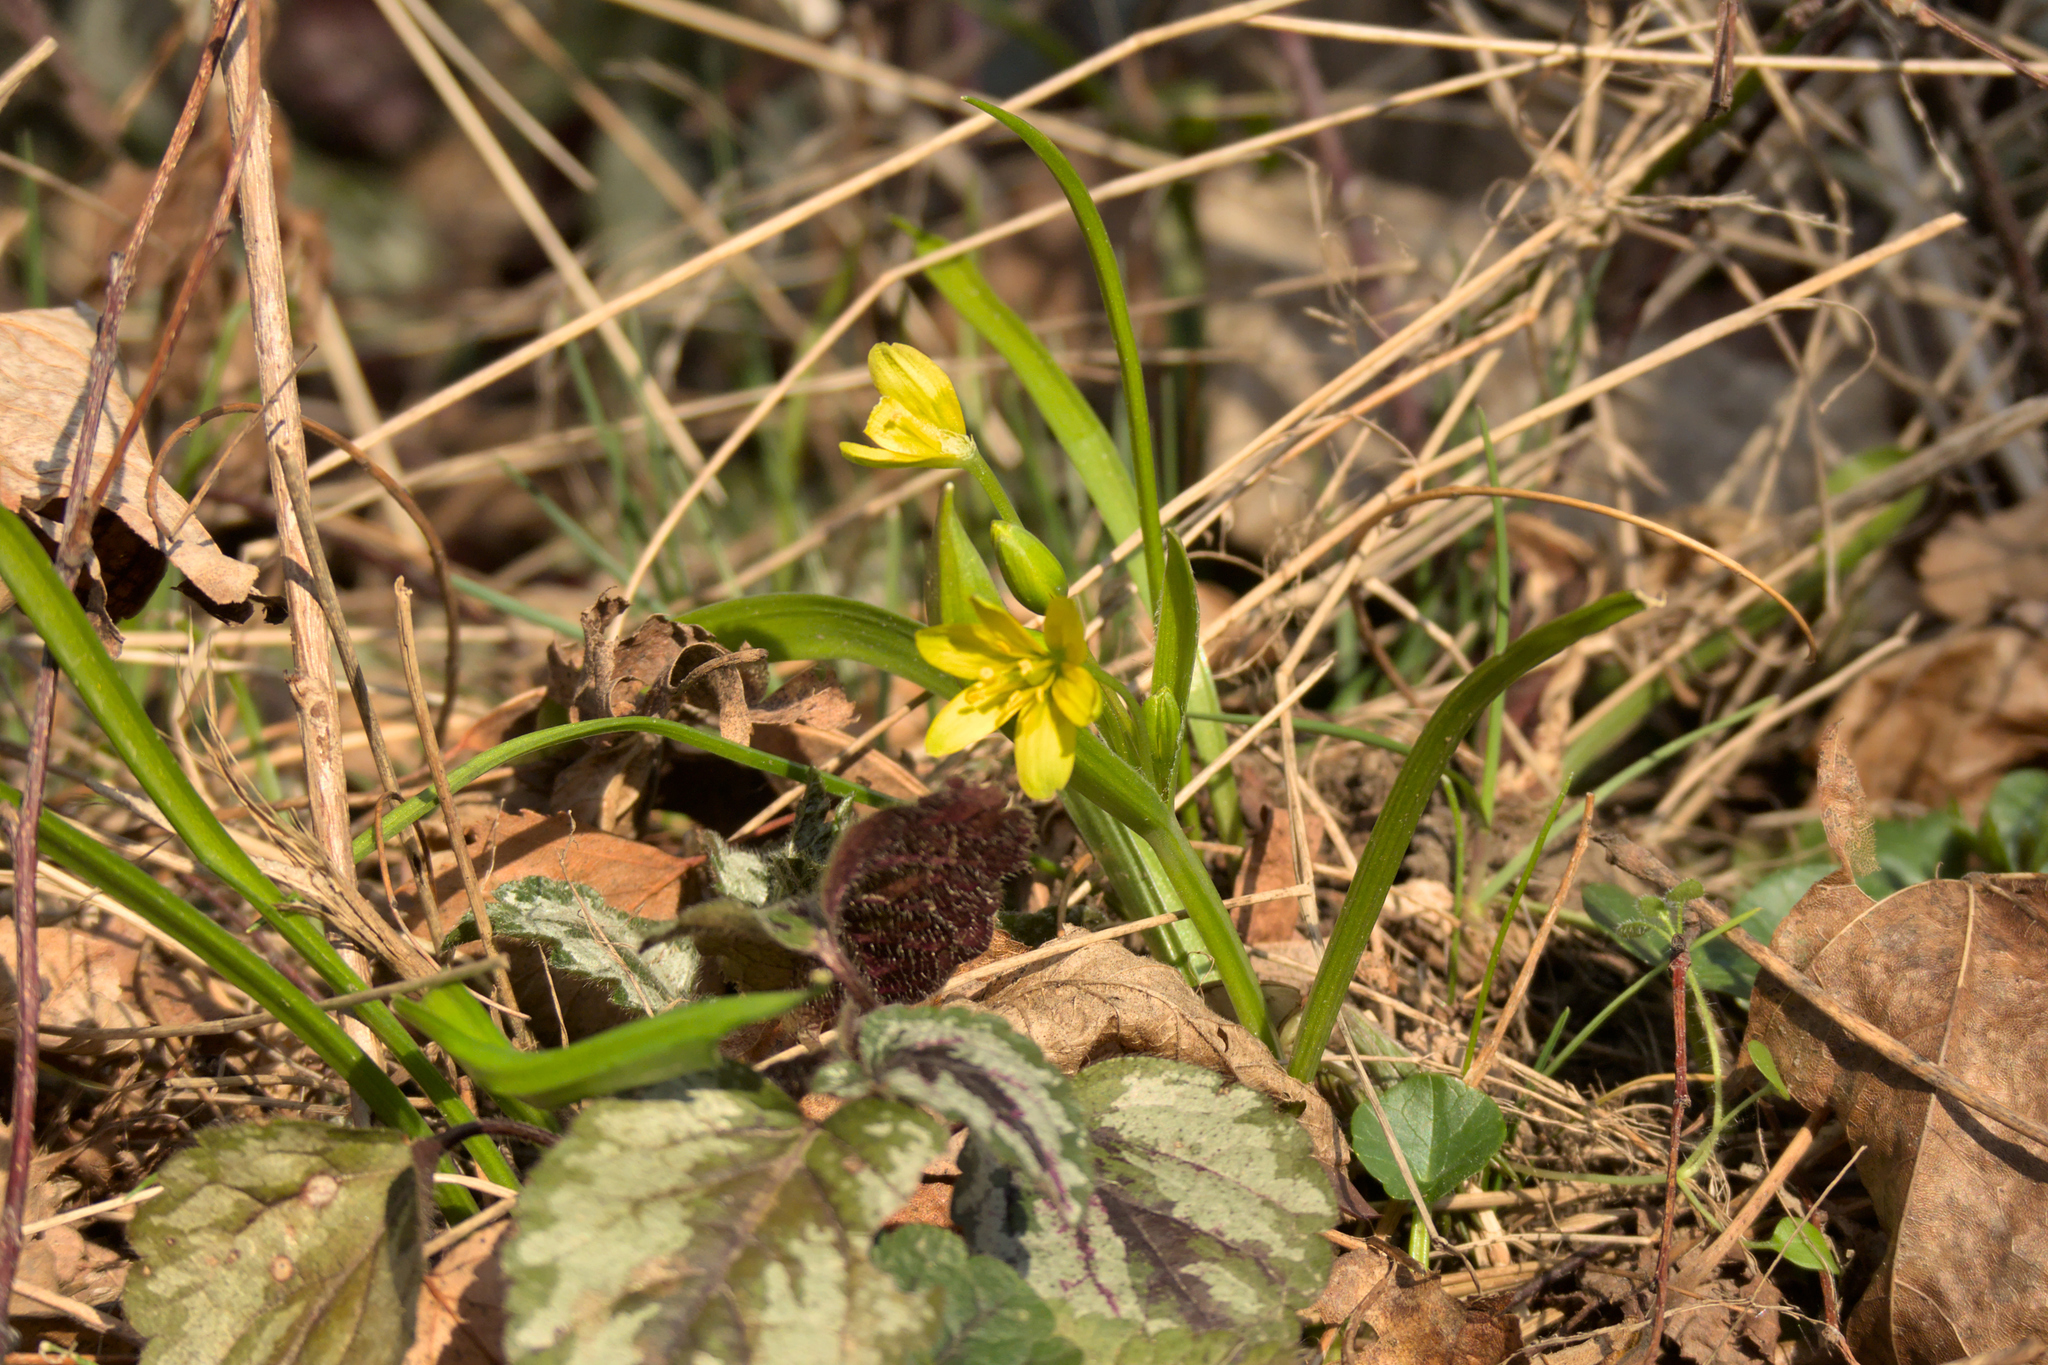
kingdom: Plantae
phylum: Tracheophyta
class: Liliopsida
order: Liliales
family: Liliaceae
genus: Gagea
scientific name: Gagea lutea
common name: Yellow star-of-bethlehem
